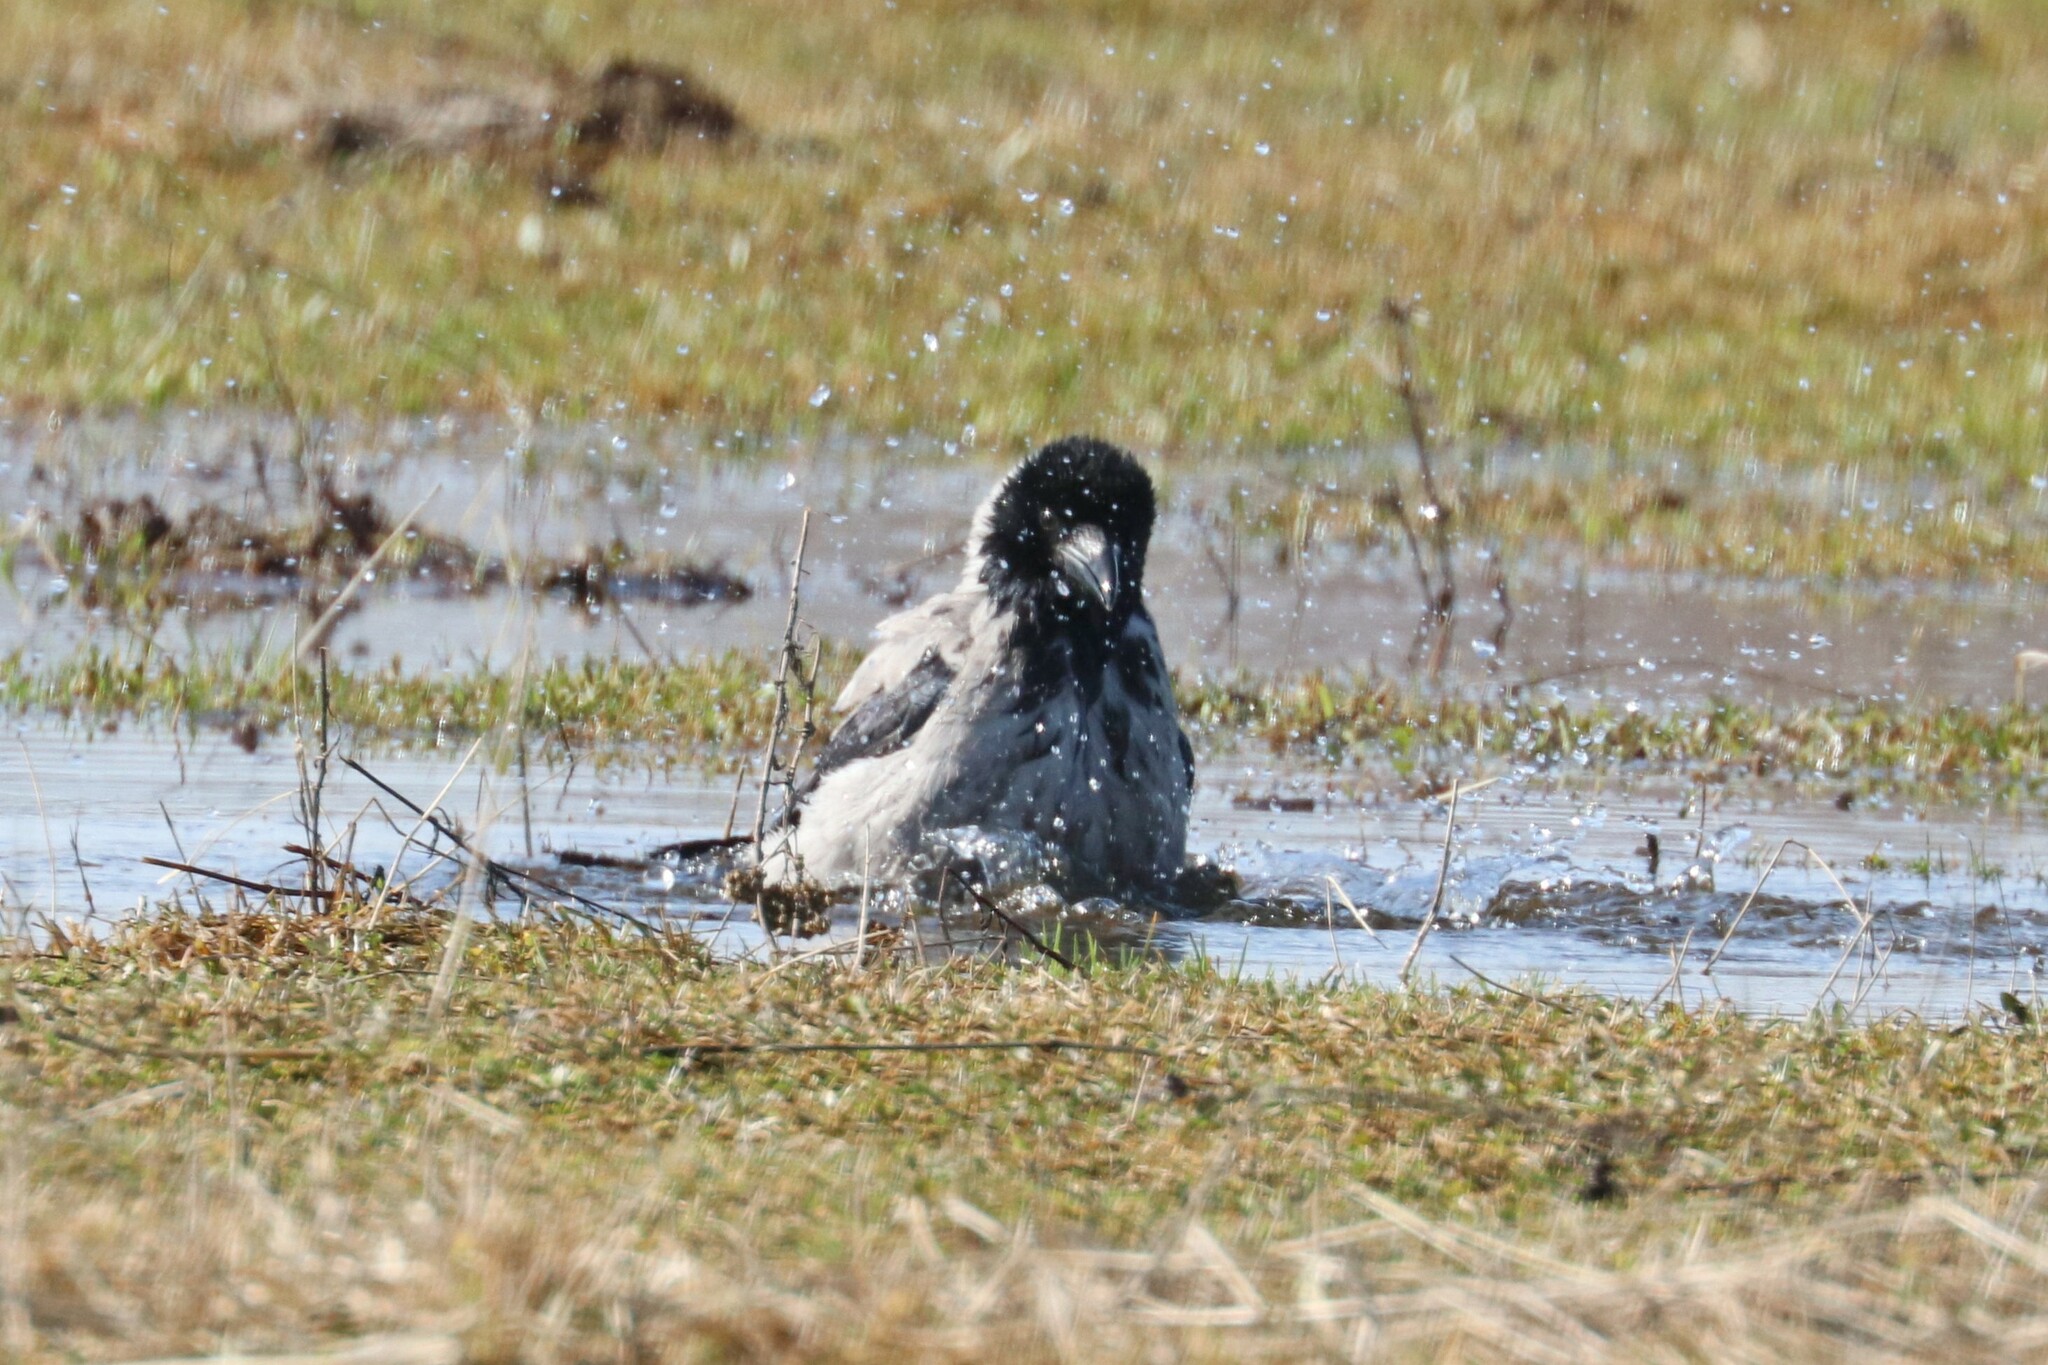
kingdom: Animalia
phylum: Chordata
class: Aves
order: Passeriformes
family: Corvidae
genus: Corvus
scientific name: Corvus cornix
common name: Hooded crow
